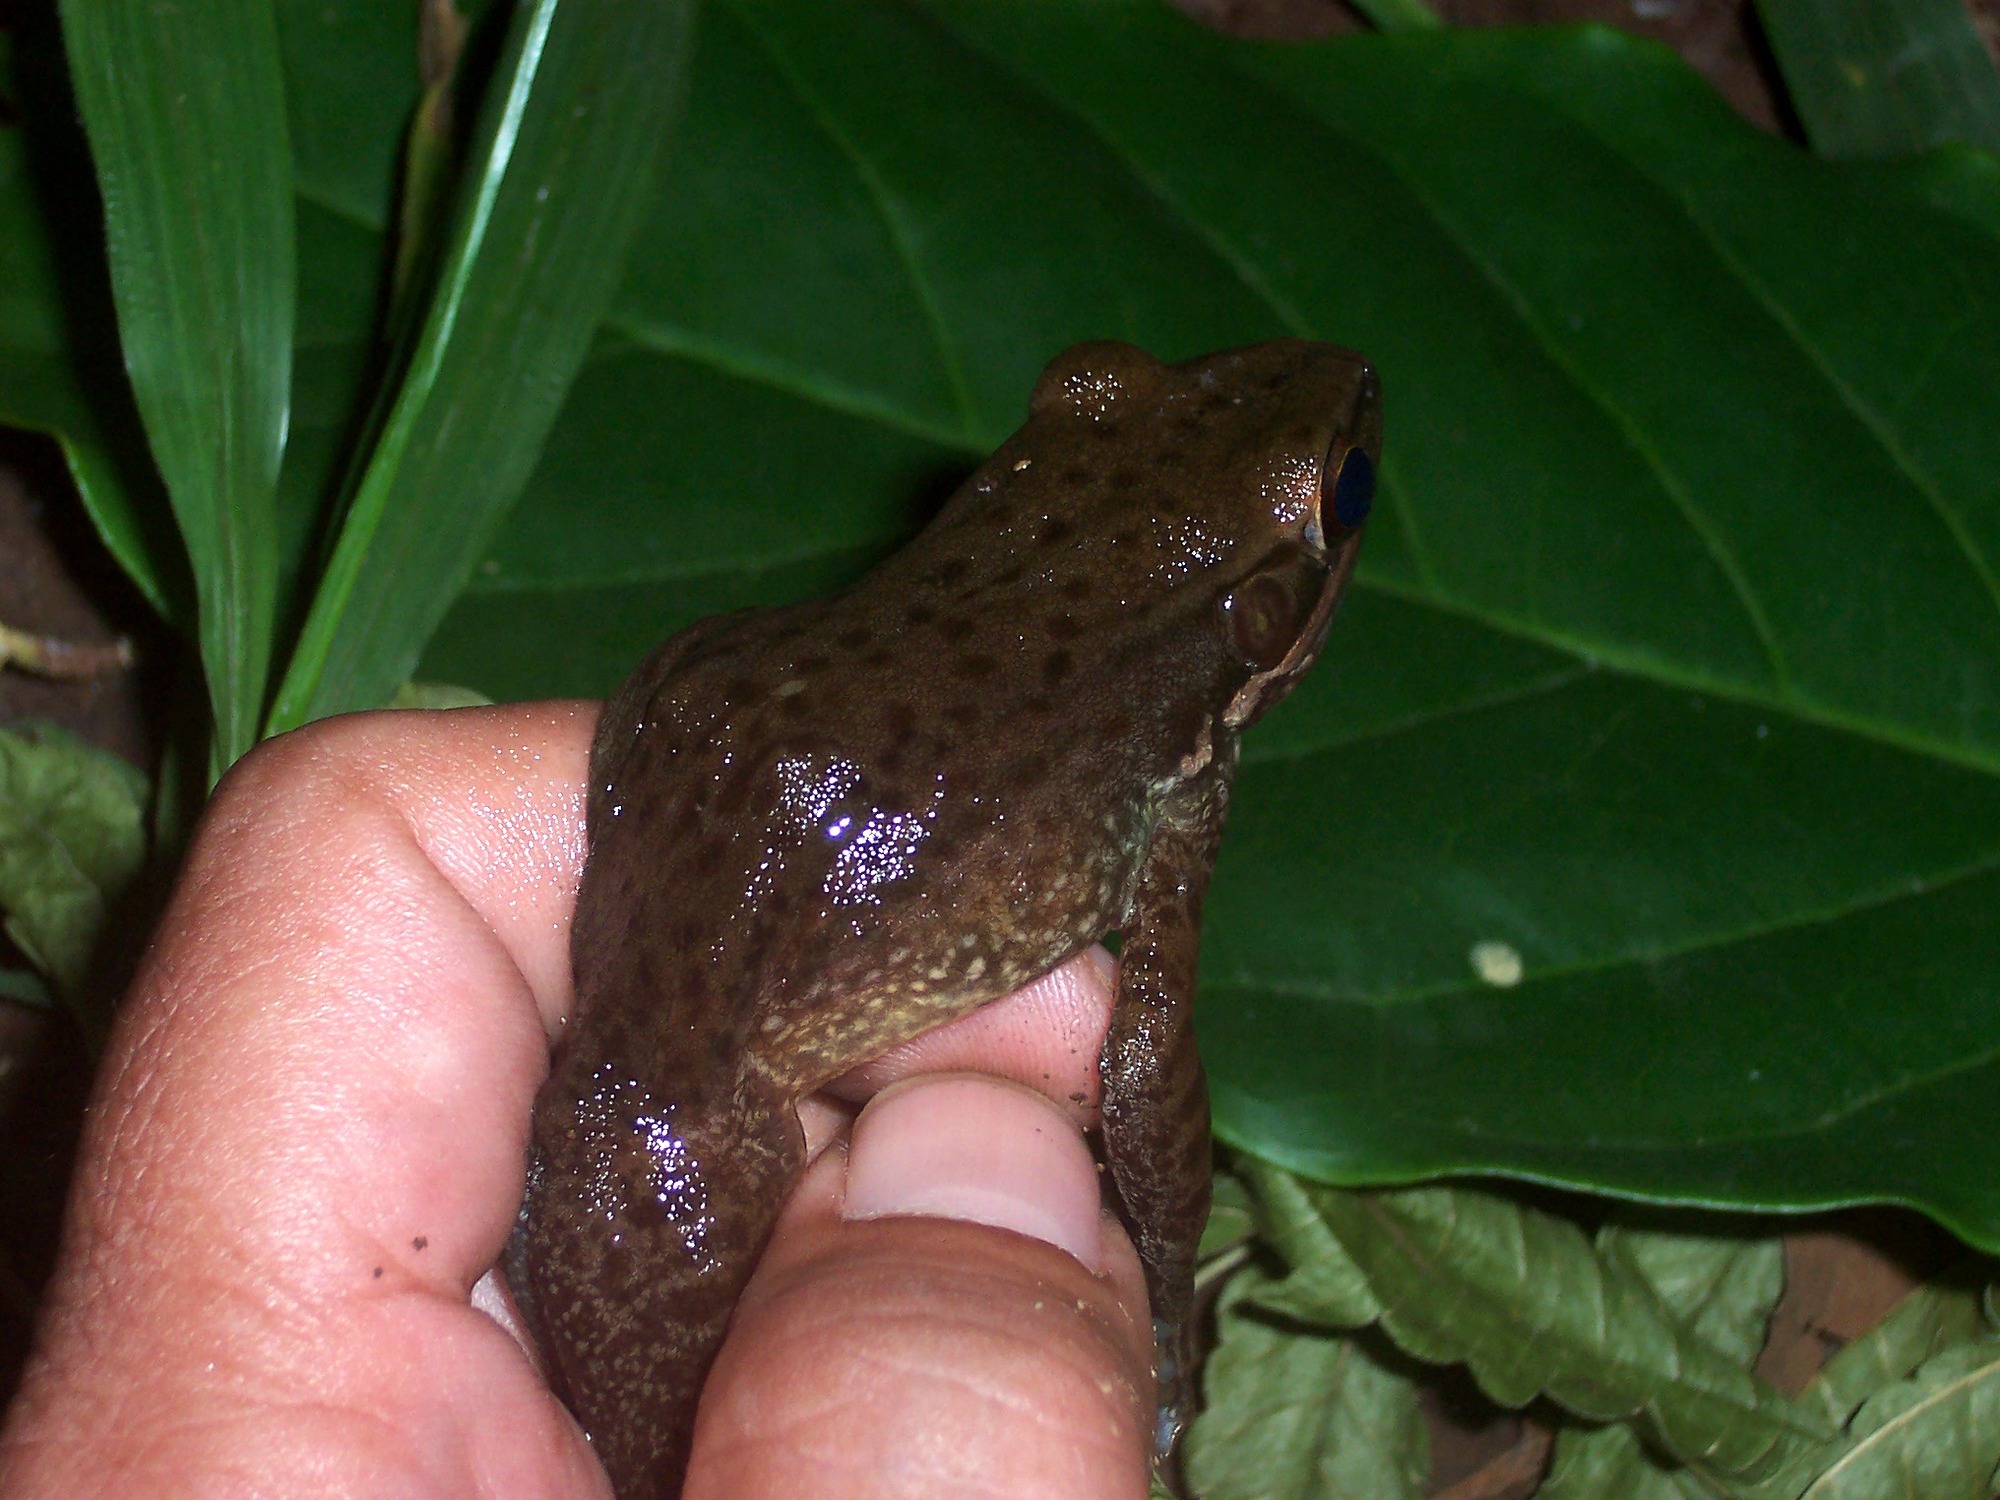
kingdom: Animalia
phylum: Chordata
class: Amphibia
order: Anura
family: Ranidae
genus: Chalcorana
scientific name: Chalcorana chalconota
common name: Schlegel's frog
